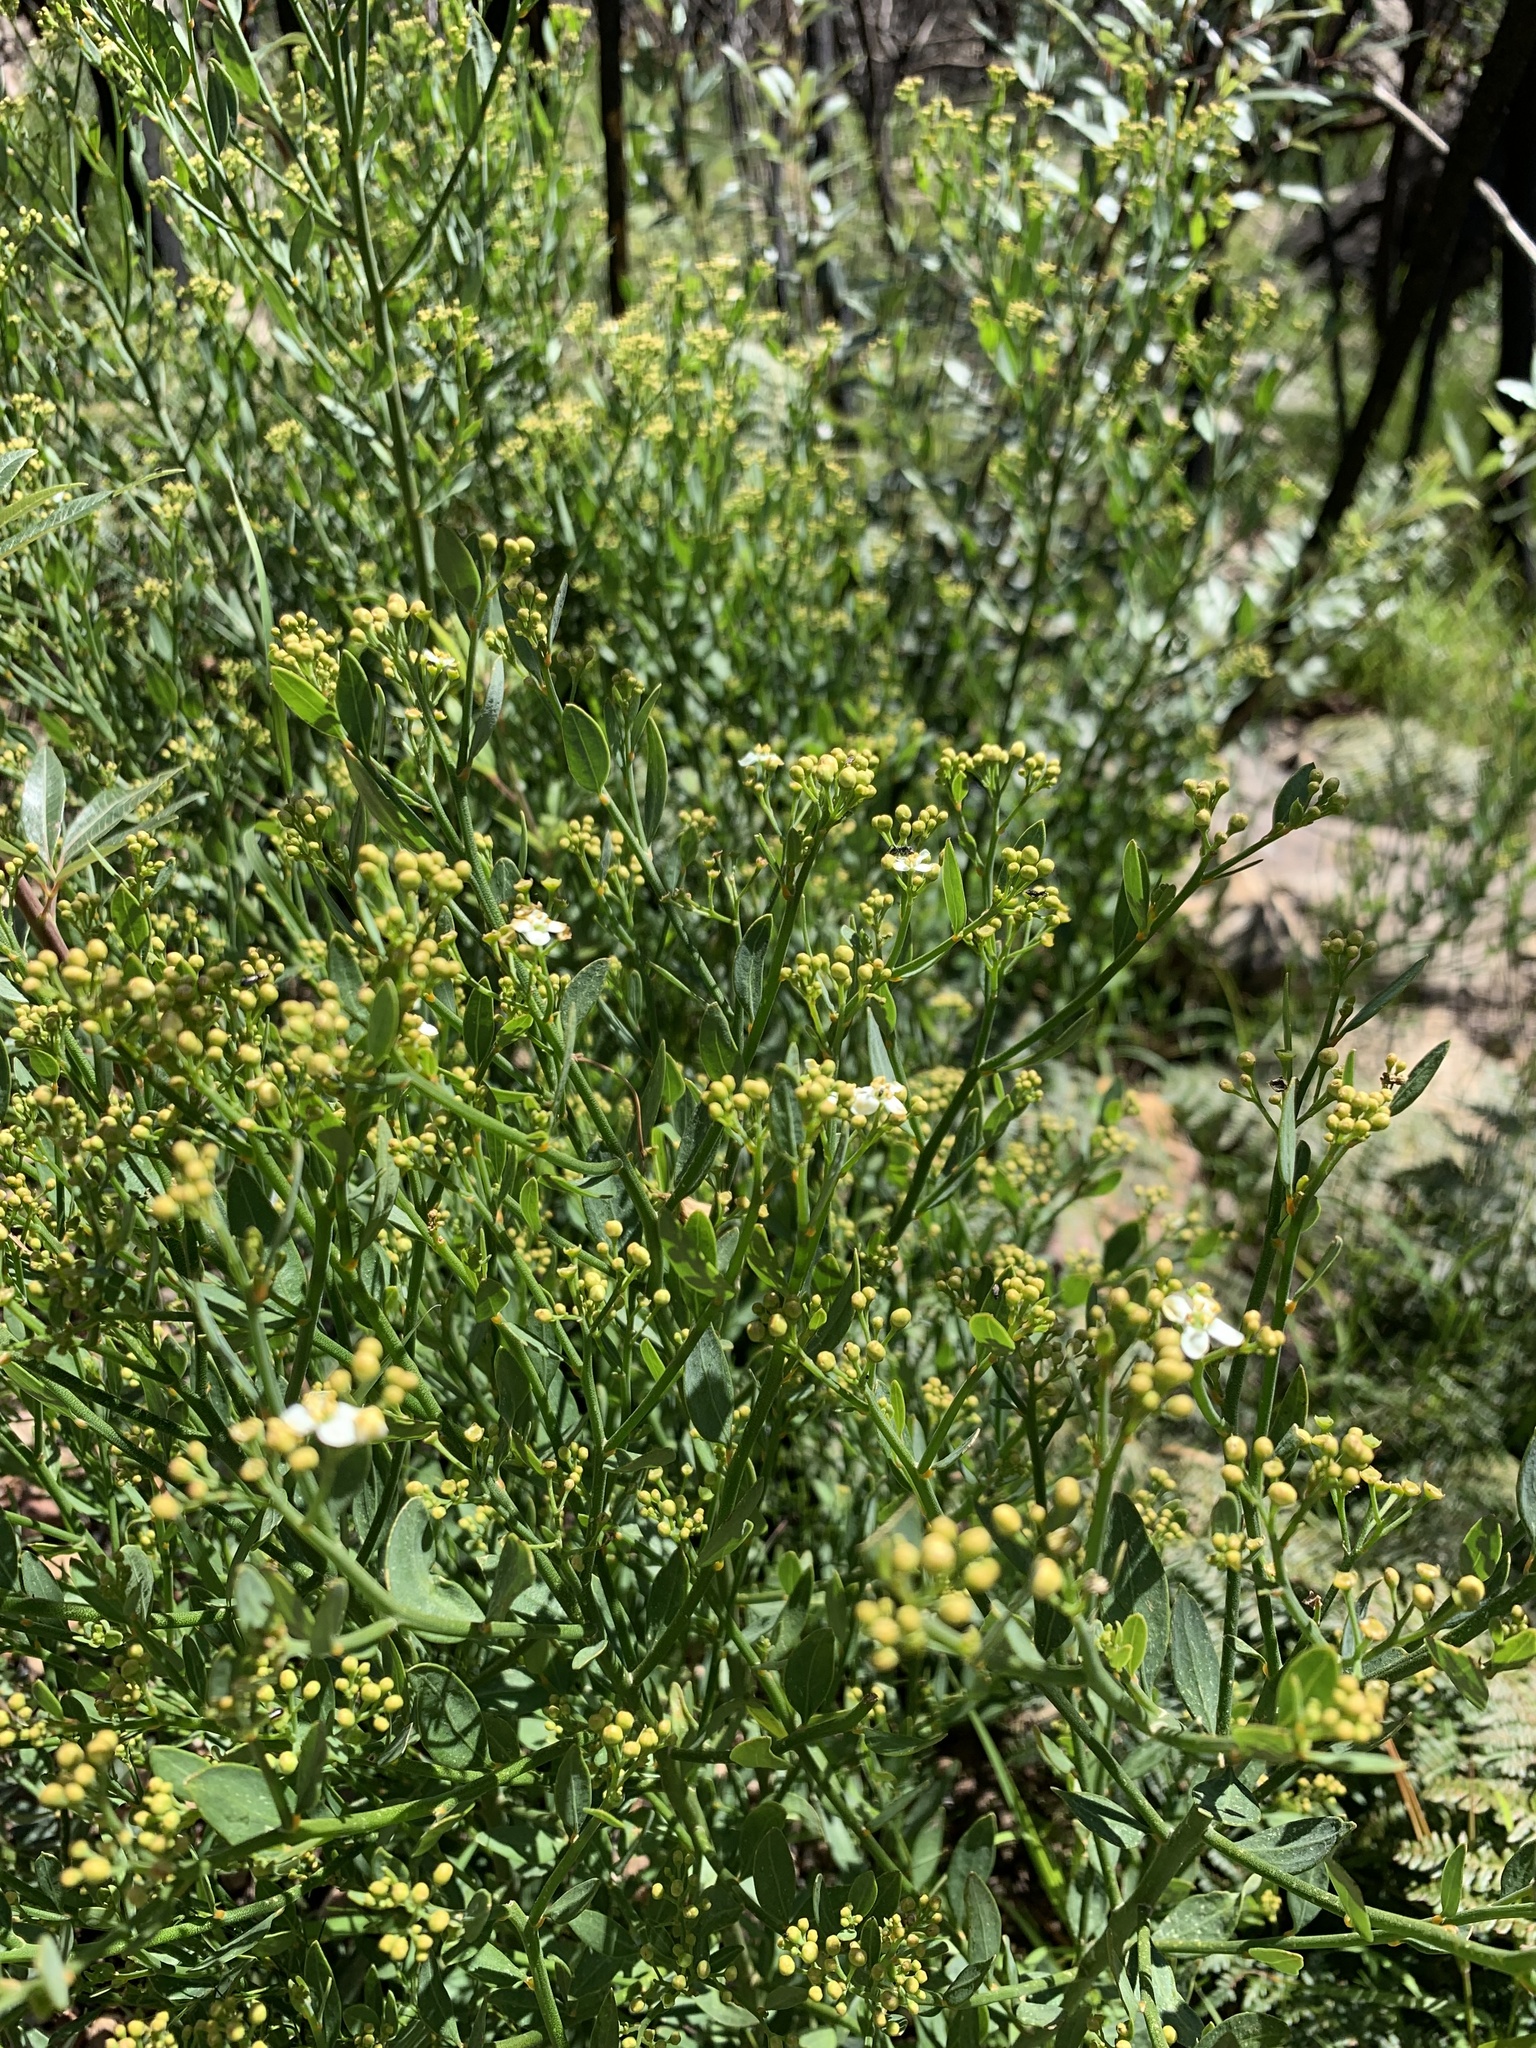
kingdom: Plantae
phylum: Tracheophyta
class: Magnoliopsida
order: Solanales
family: Montiniaceae
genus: Montinia
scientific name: Montinia caryophyllacea
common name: Wild clove-bush
